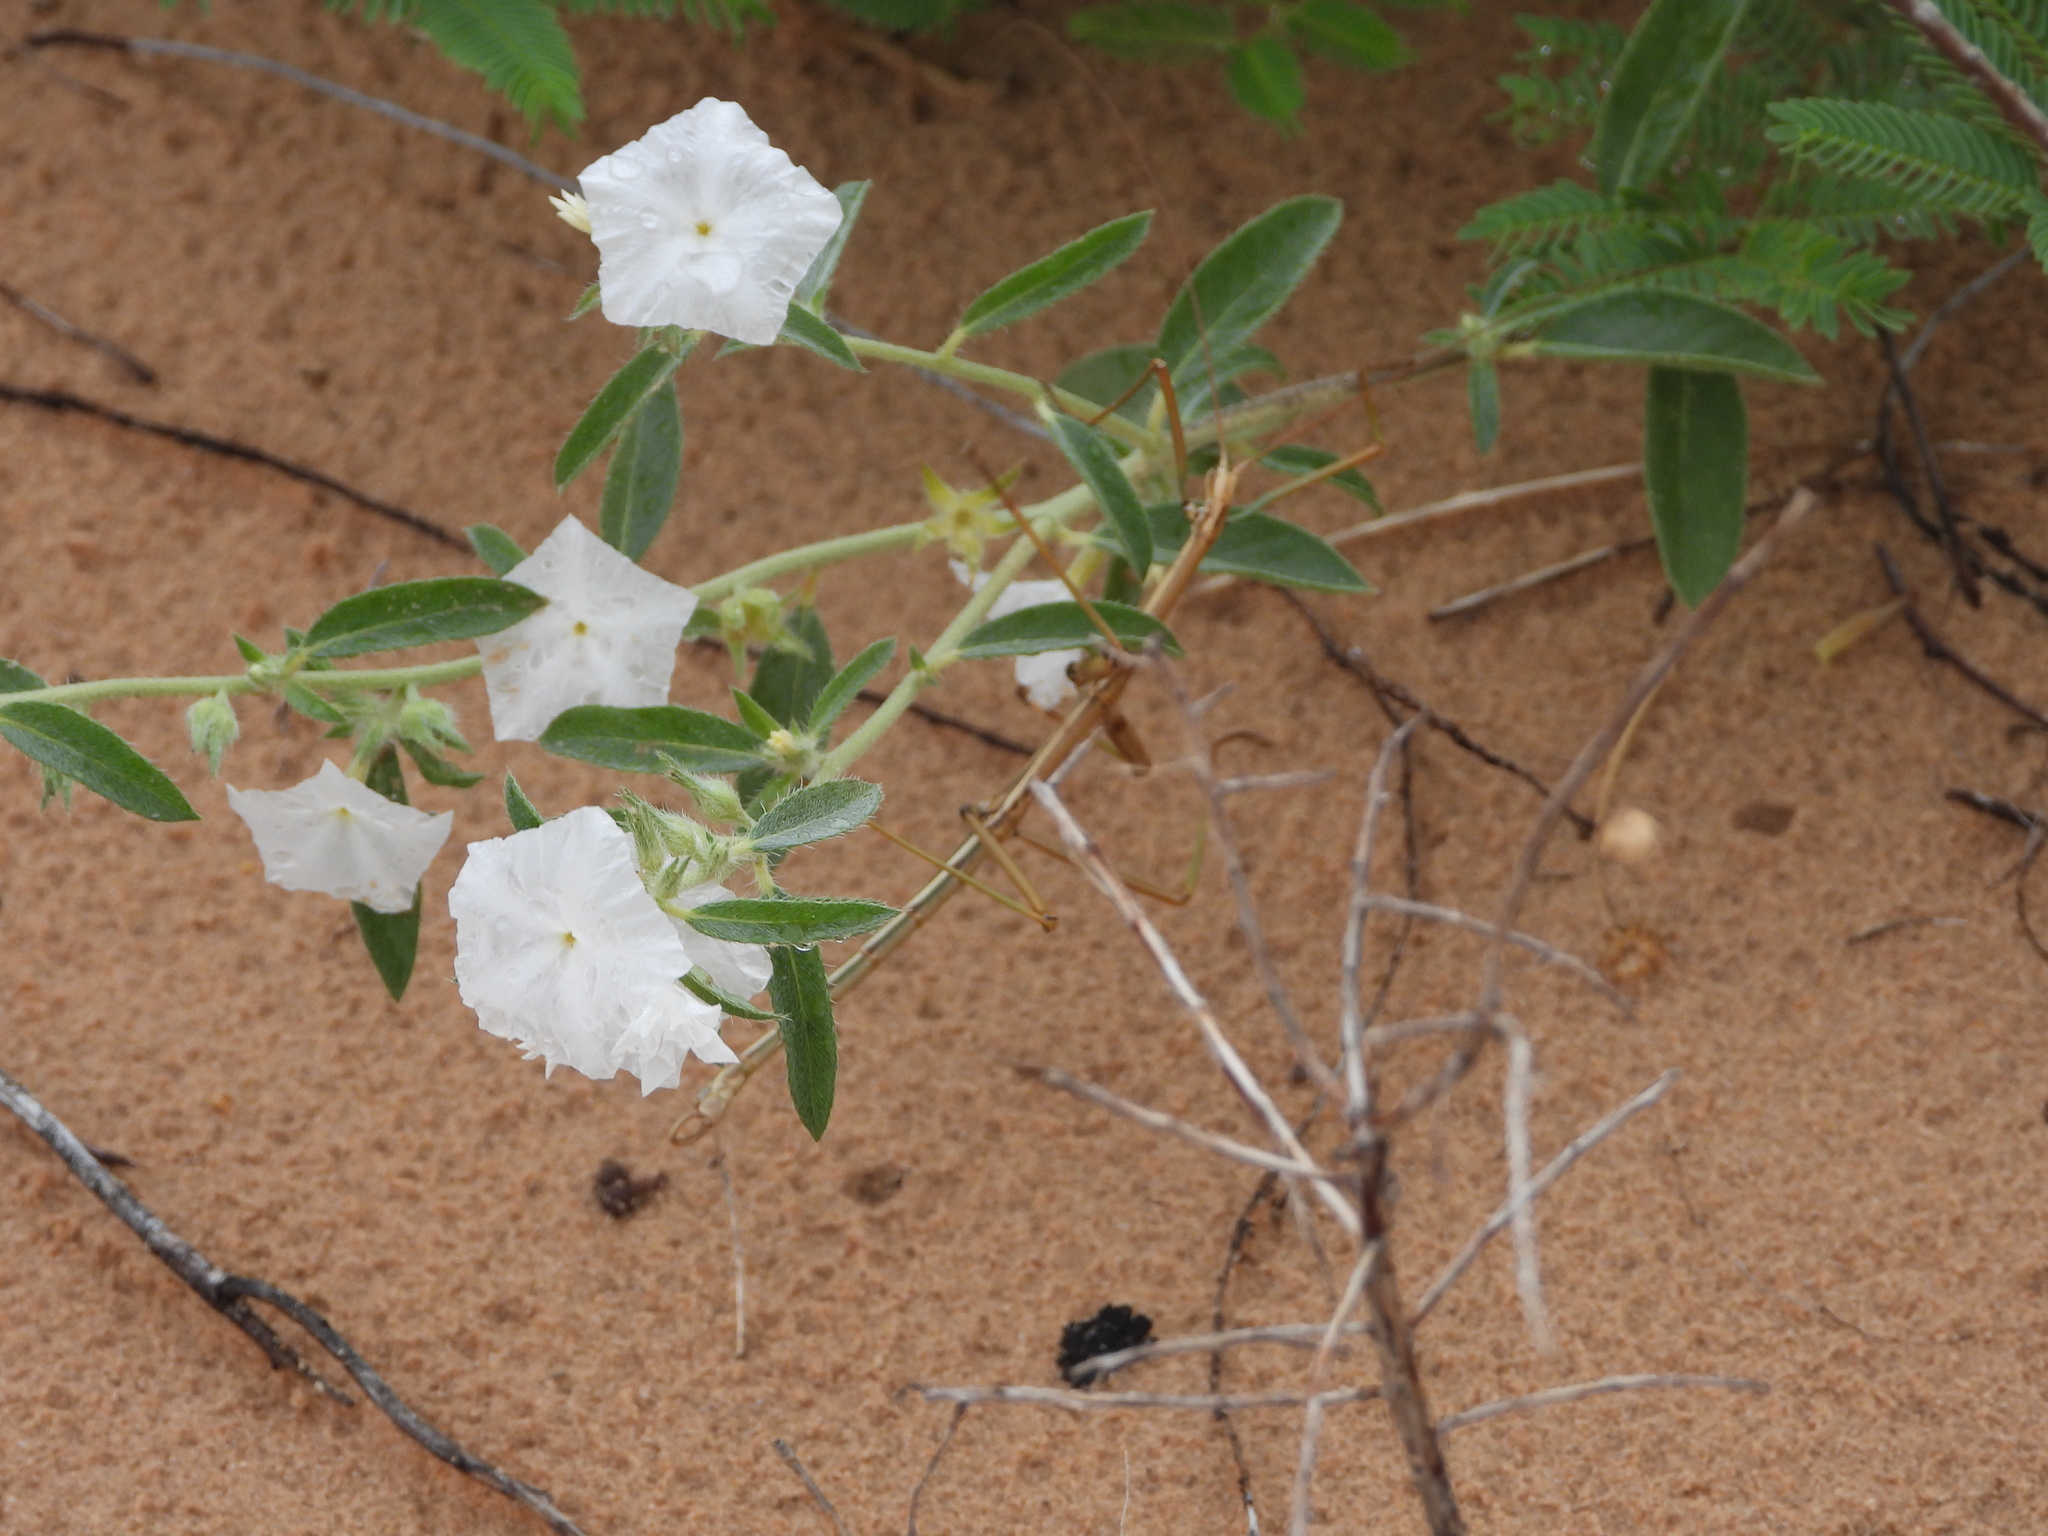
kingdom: Plantae
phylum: Tracheophyta
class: Magnoliopsida
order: Boraginales
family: Heliotropiaceae
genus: Euploca
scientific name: Euploca convolvulacea
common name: Bindweed heliotrope
